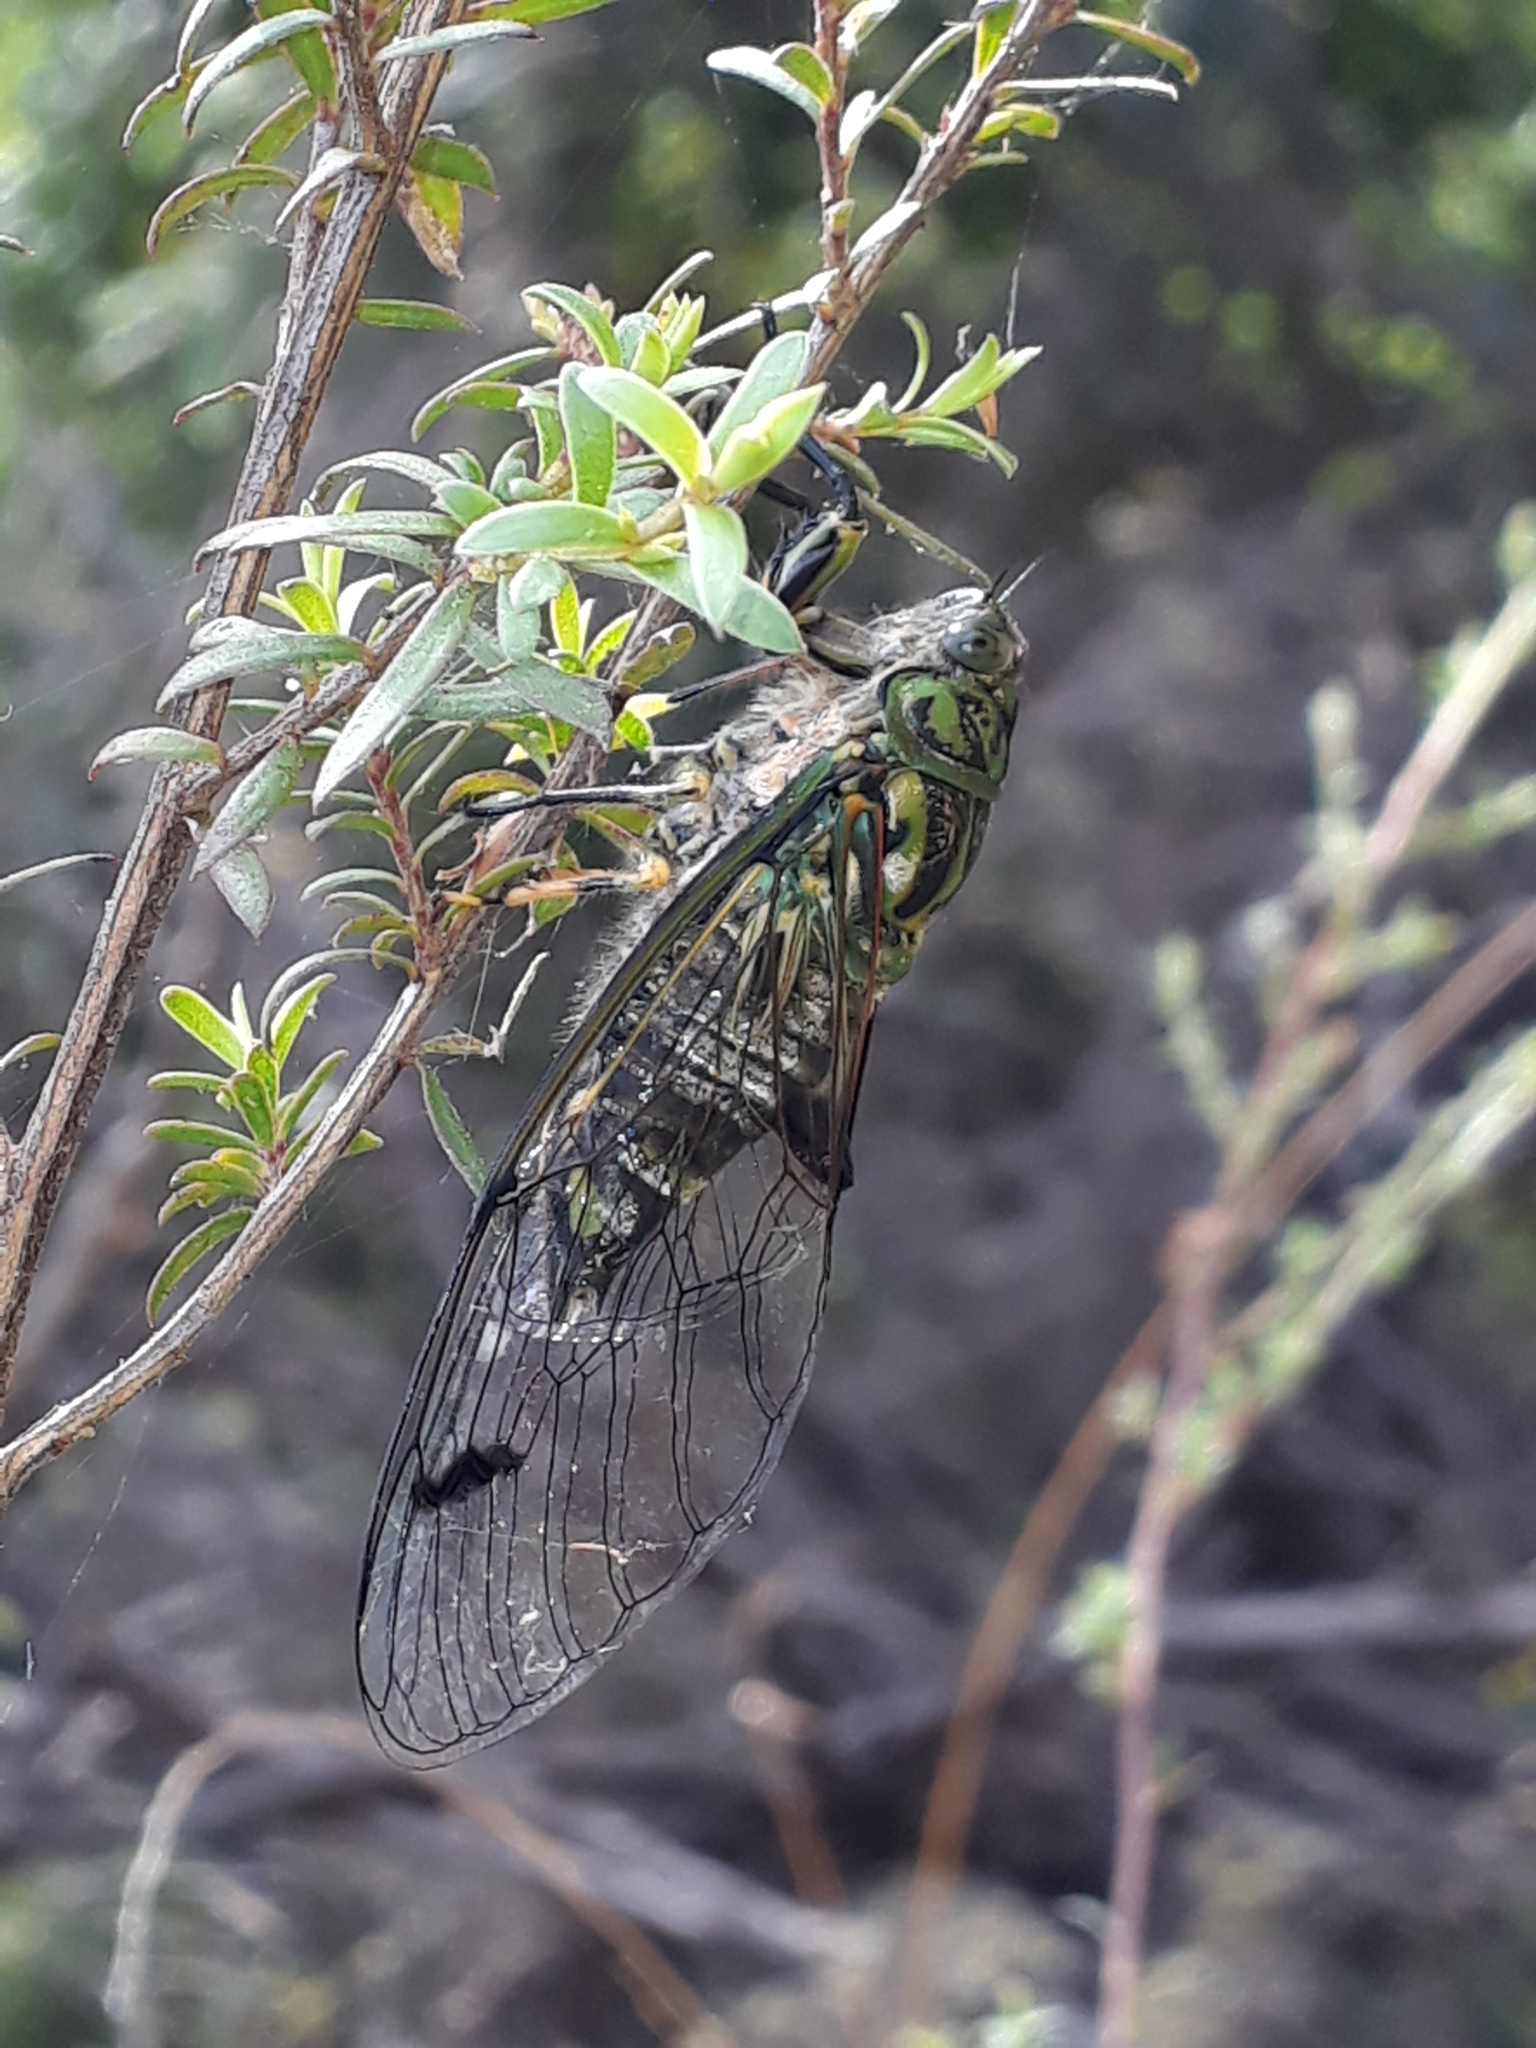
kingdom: Animalia
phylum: Arthropoda
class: Insecta
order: Hemiptera
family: Cicadidae
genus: Amphipsalta
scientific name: Amphipsalta zelandica
